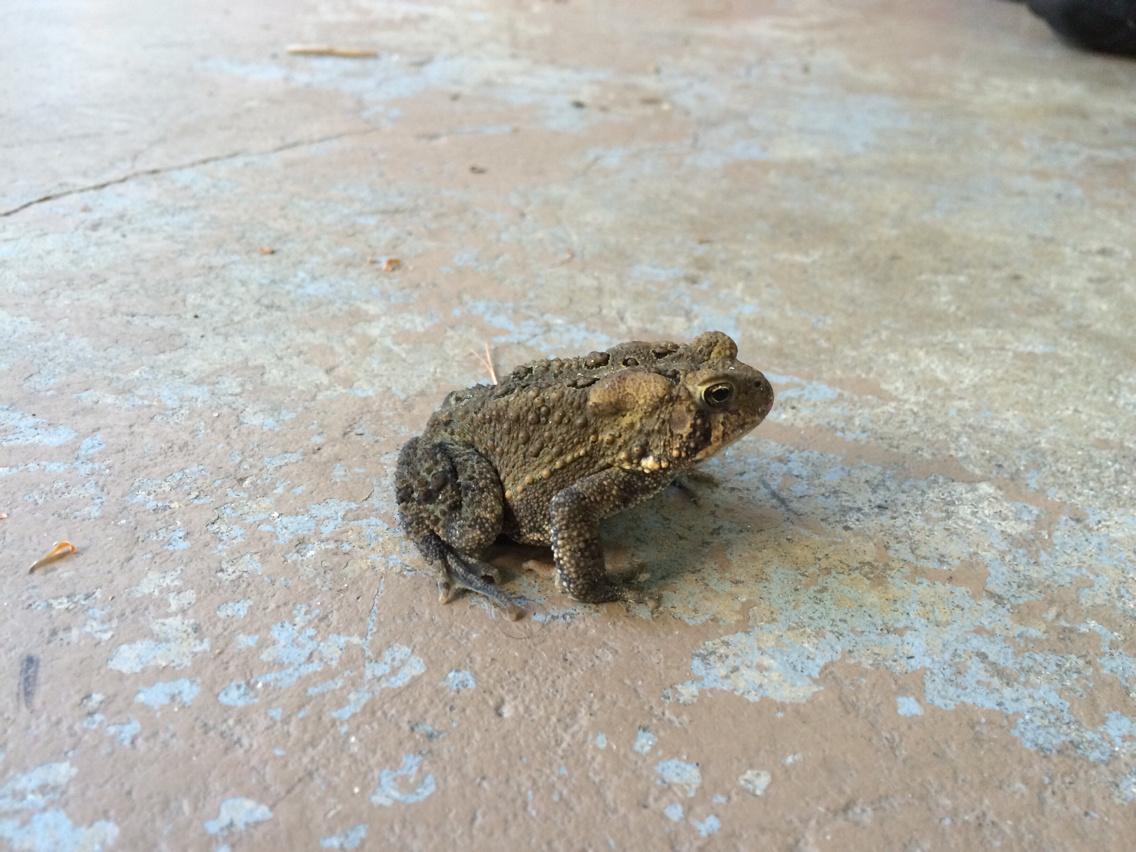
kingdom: Animalia
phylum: Chordata
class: Amphibia
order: Anura
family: Bufonidae
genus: Anaxyrus
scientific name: Anaxyrus americanus
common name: American toad
